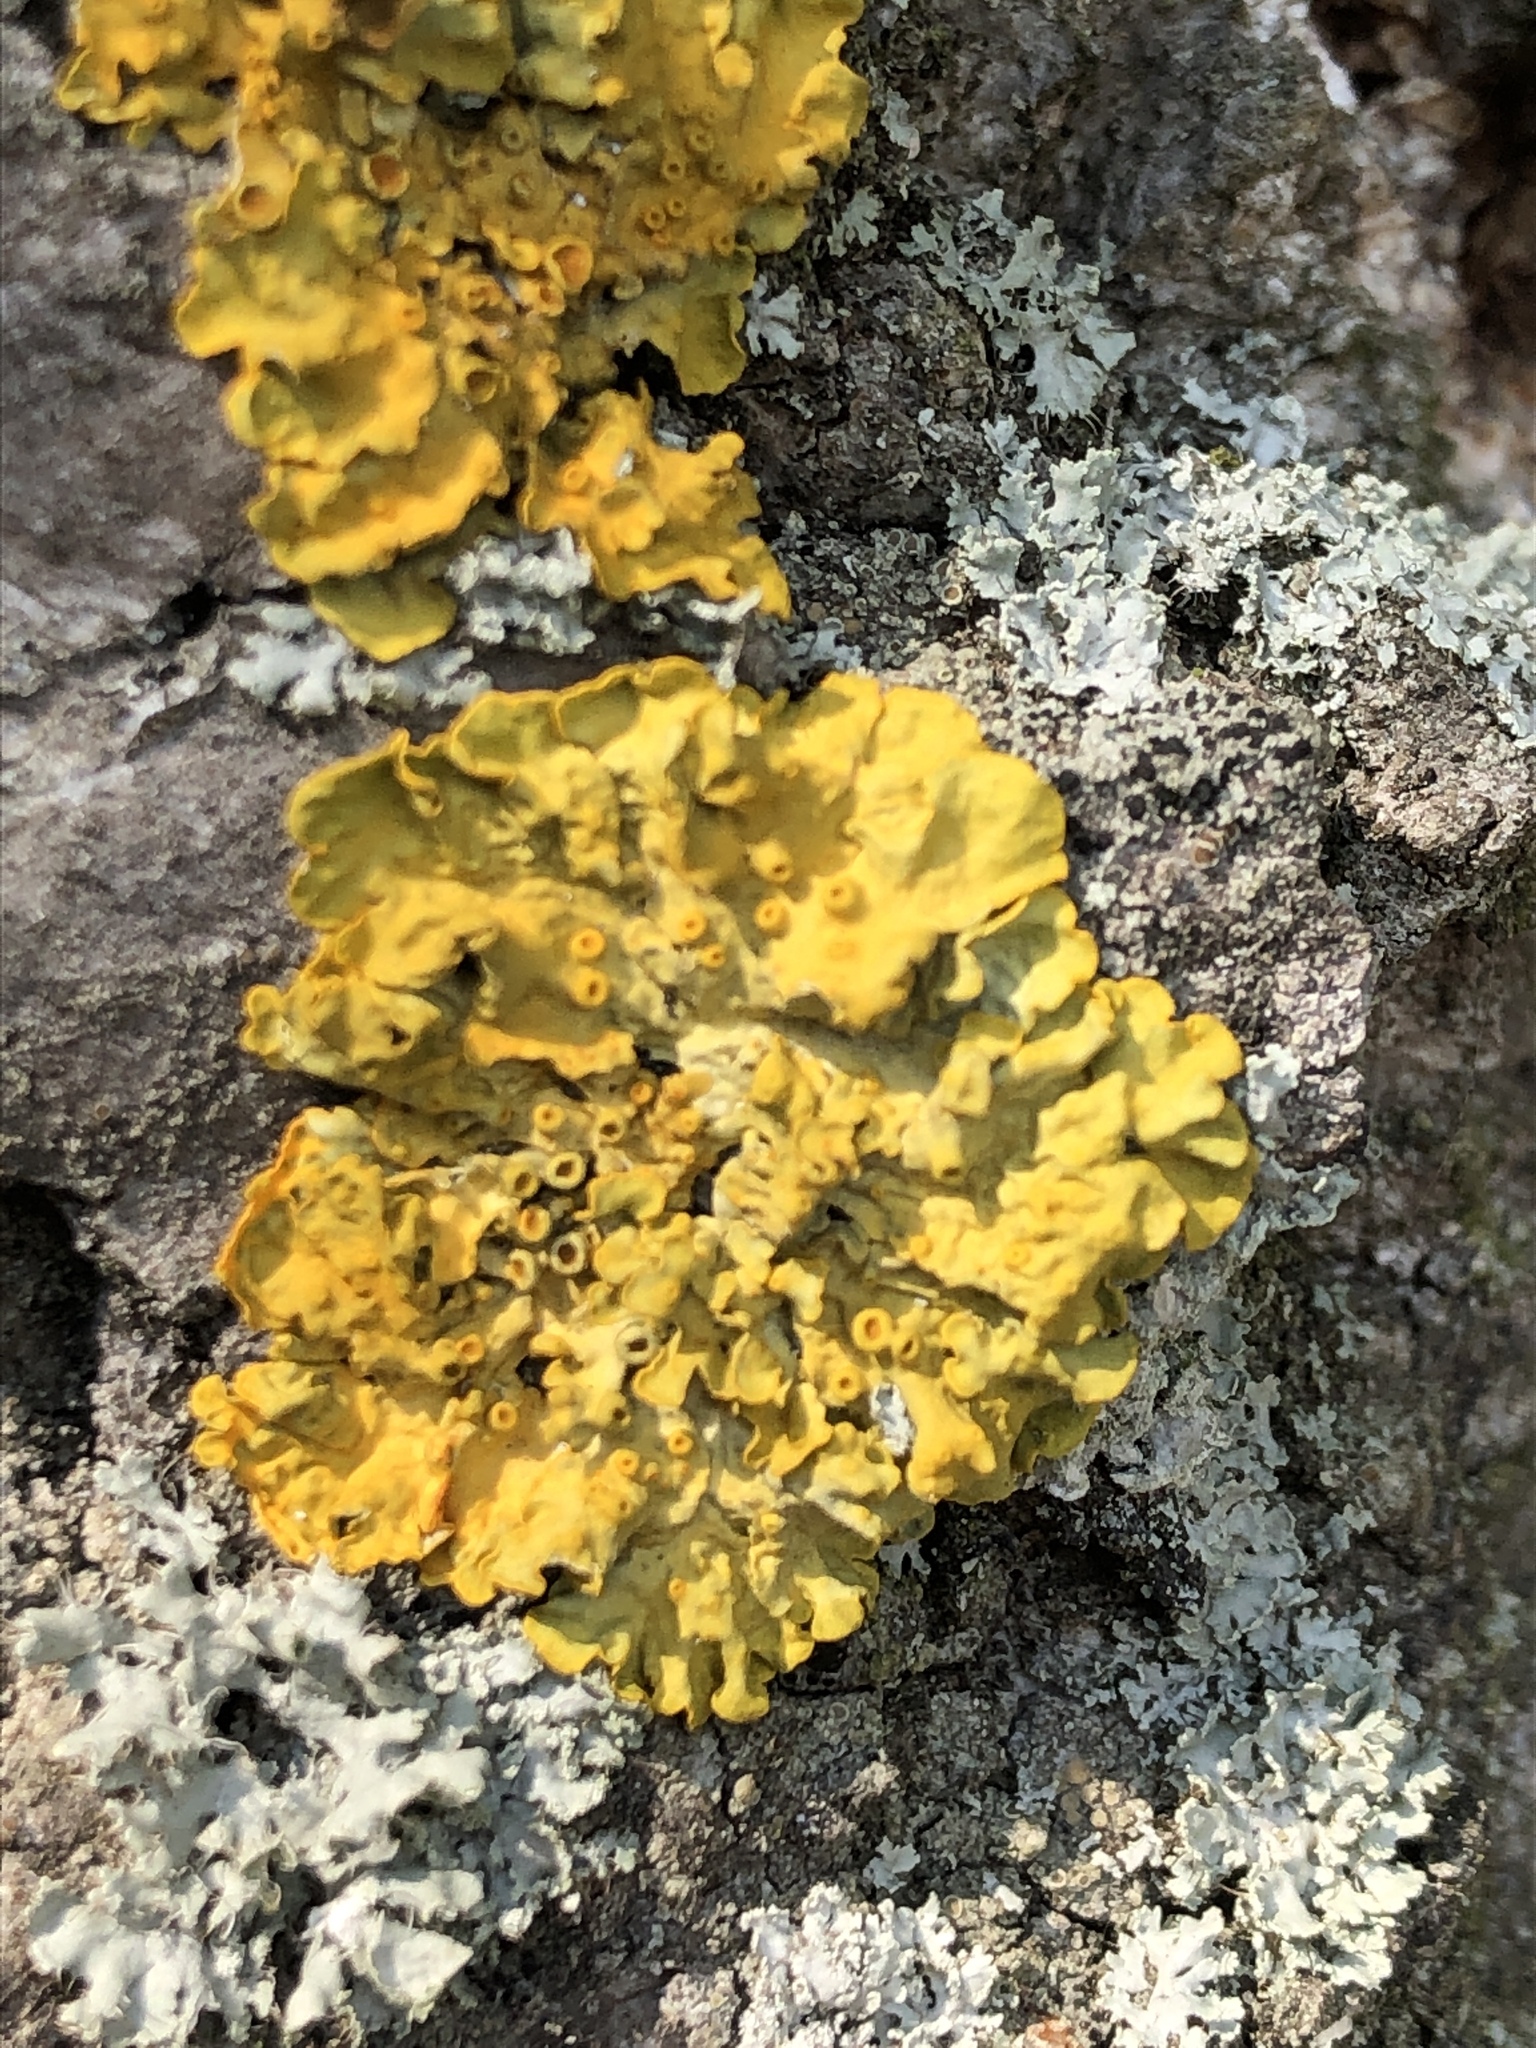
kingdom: Fungi
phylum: Ascomycota
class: Lecanoromycetes
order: Teloschistales
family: Teloschistaceae
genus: Xanthoria
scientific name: Xanthoria parietina
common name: Common orange lichen
